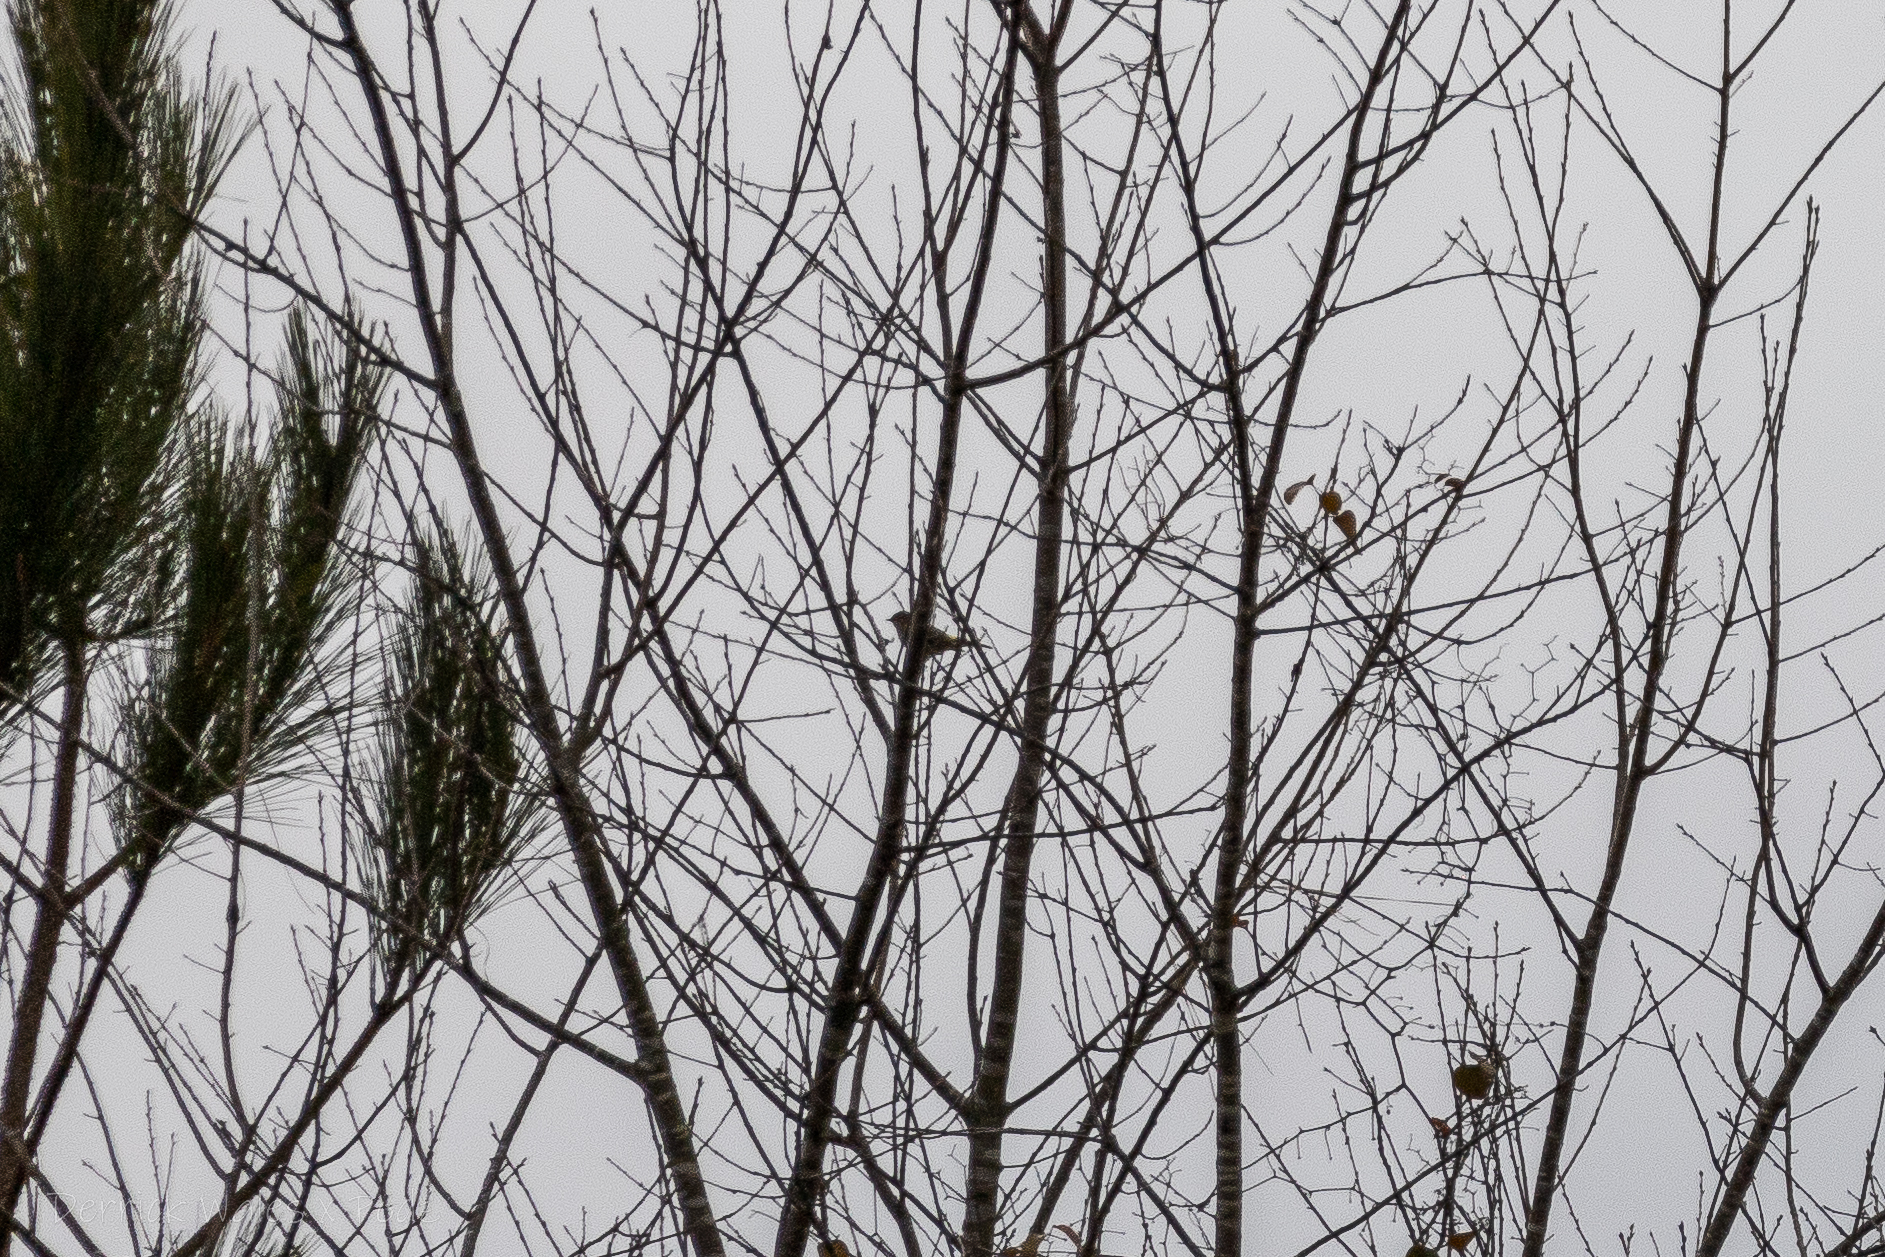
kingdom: Animalia
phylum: Chordata
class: Aves
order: Passeriformes
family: Parulidae
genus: Setophaga
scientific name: Setophaga coronata
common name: Myrtle warbler
